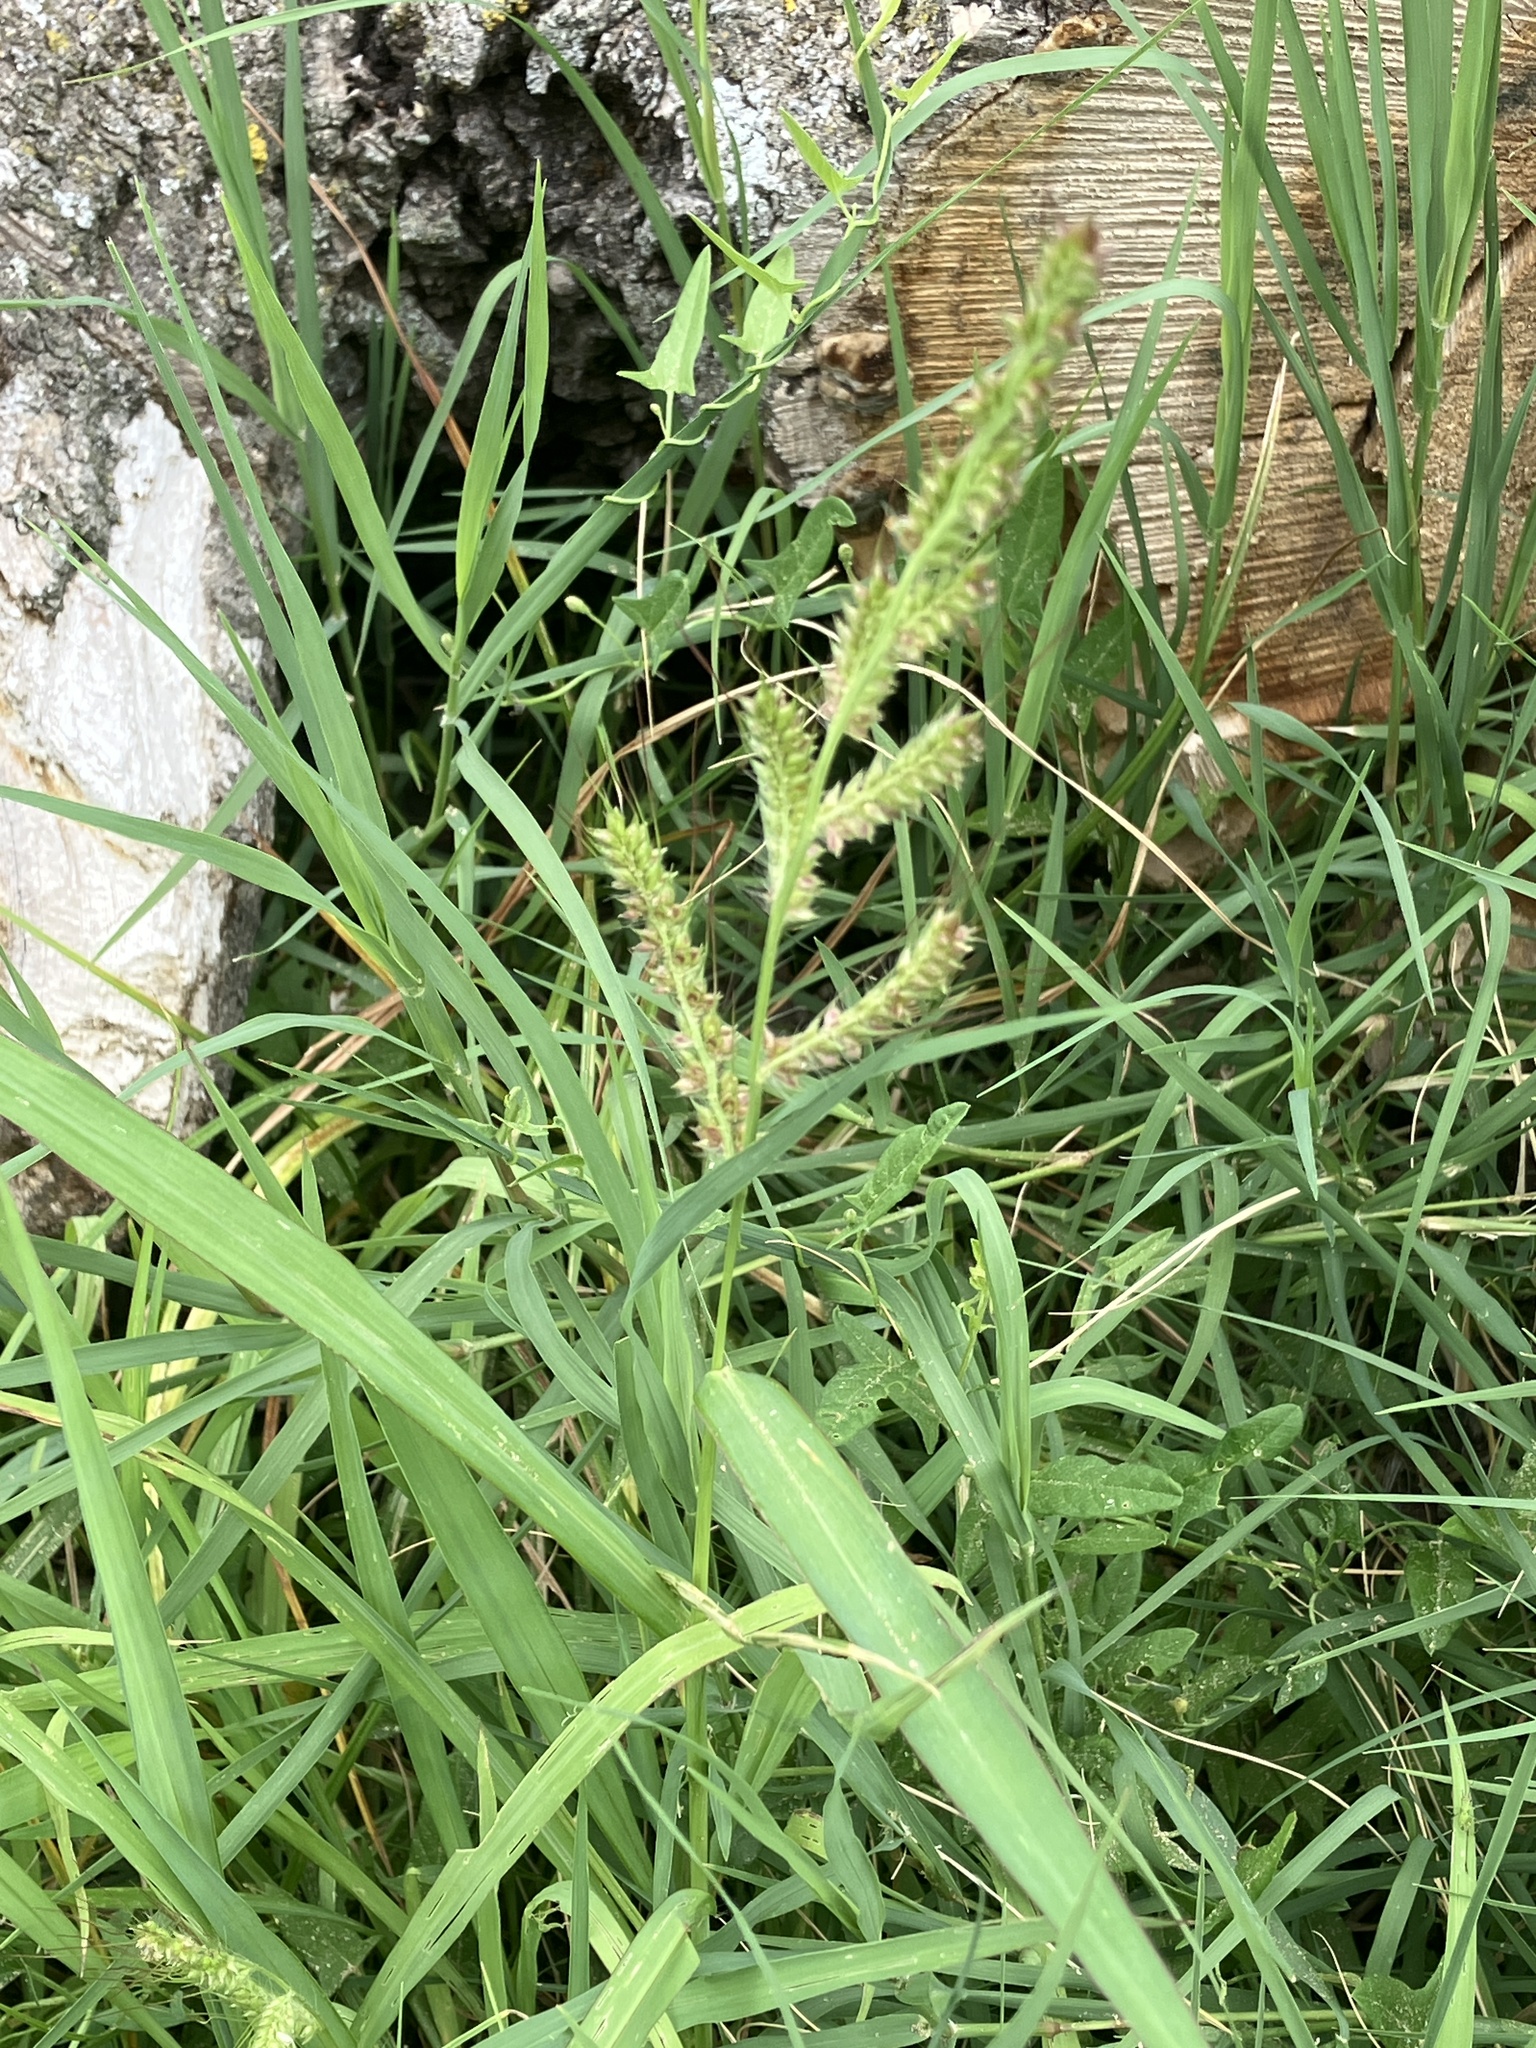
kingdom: Plantae
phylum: Tracheophyta
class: Liliopsida
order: Poales
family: Poaceae
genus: Echinochloa
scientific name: Echinochloa crus-galli
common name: Cockspur
